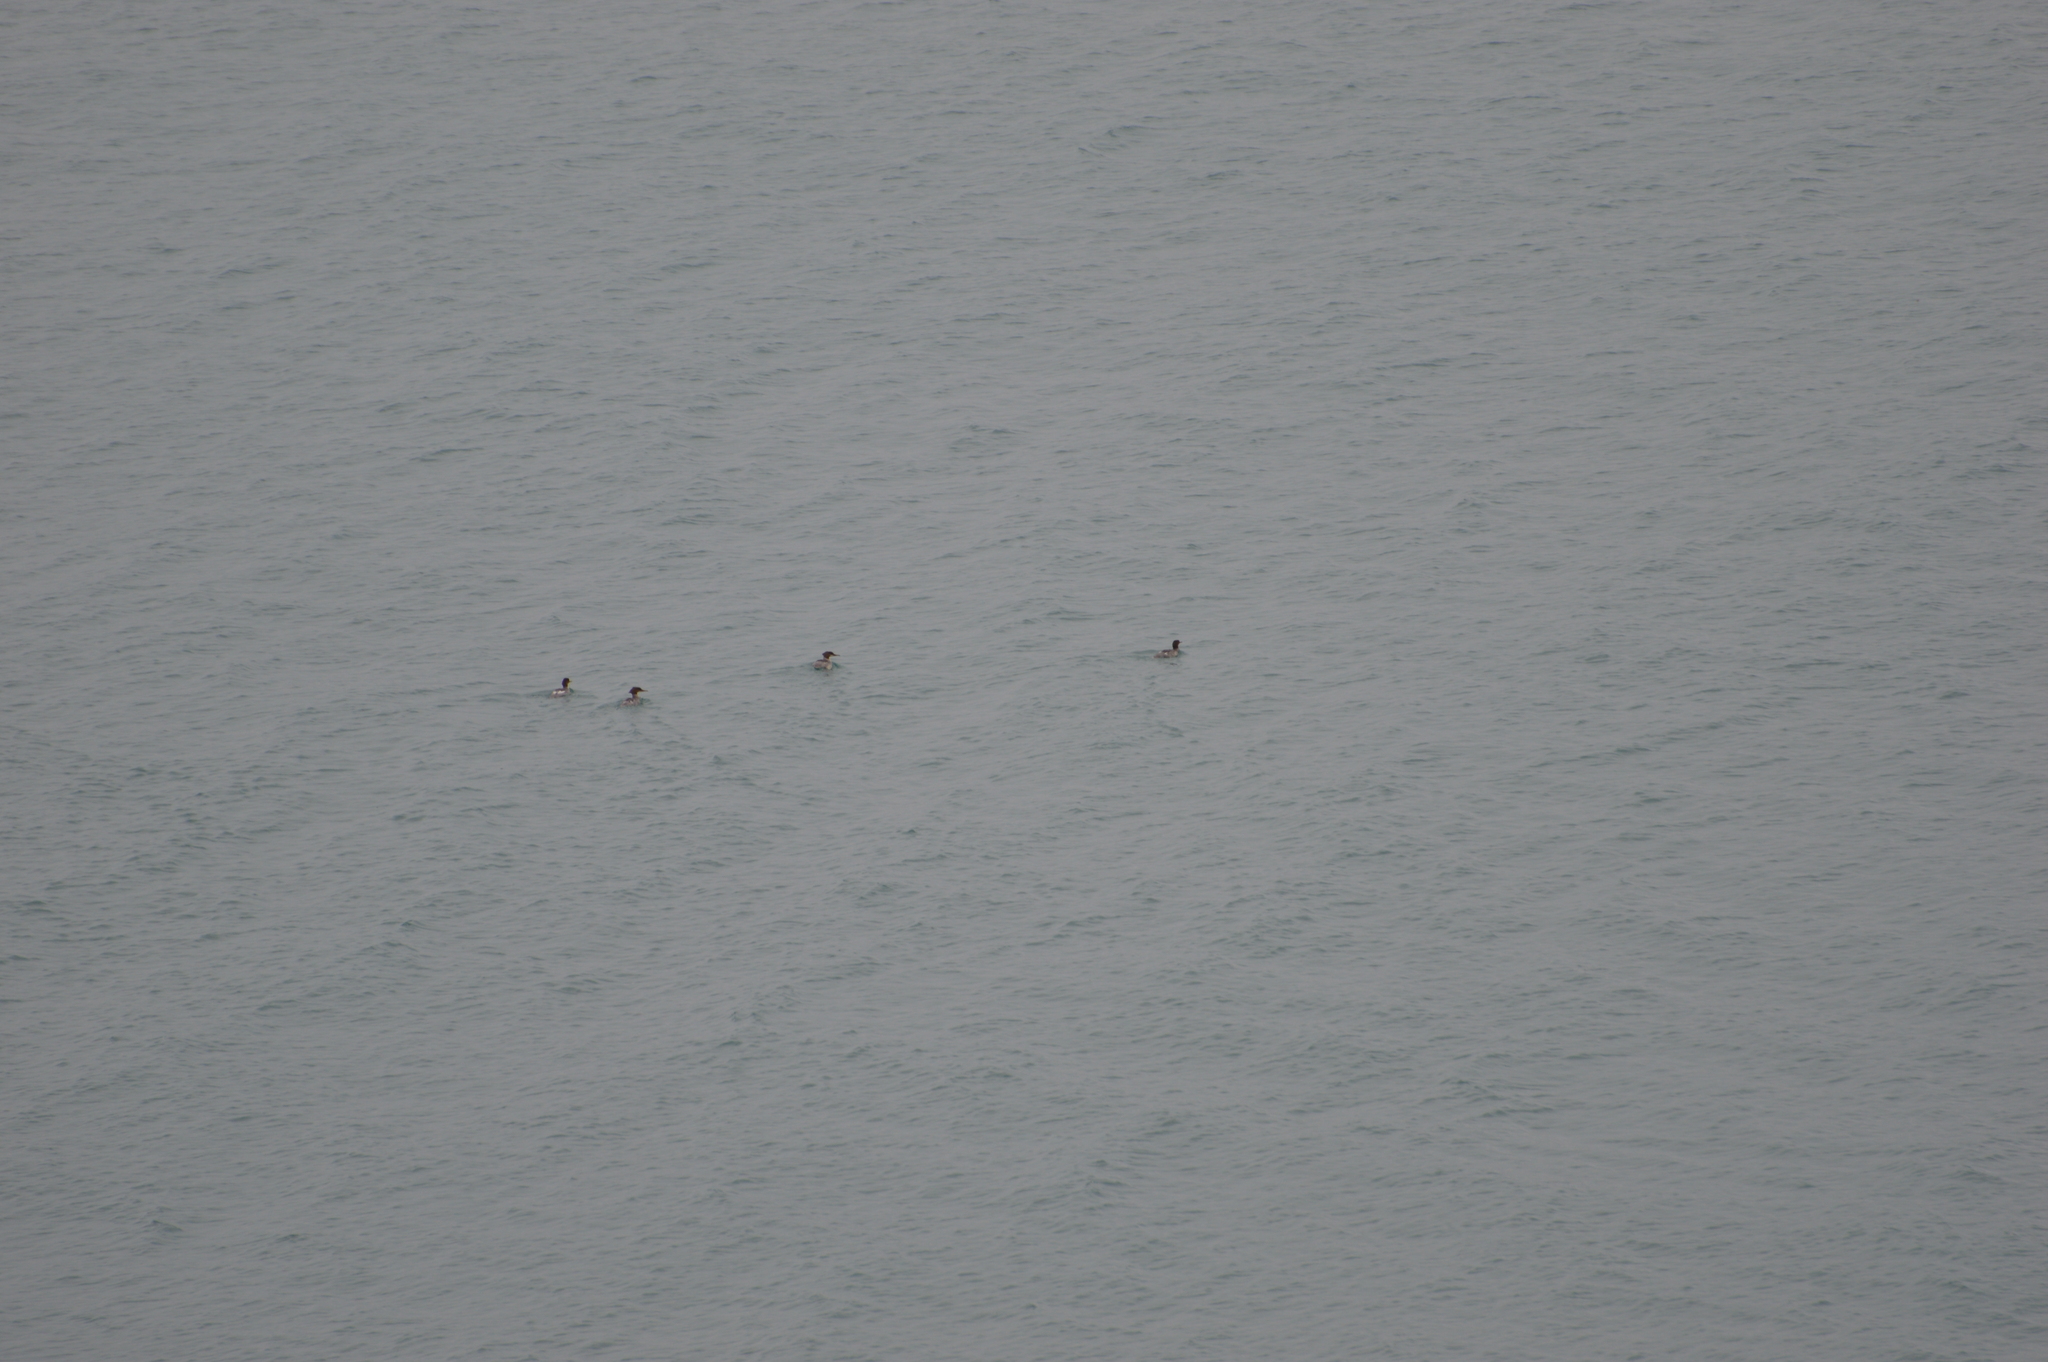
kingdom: Animalia
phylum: Chordata
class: Aves
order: Anseriformes
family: Anatidae
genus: Mergus
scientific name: Mergus merganser
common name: Common merganser
